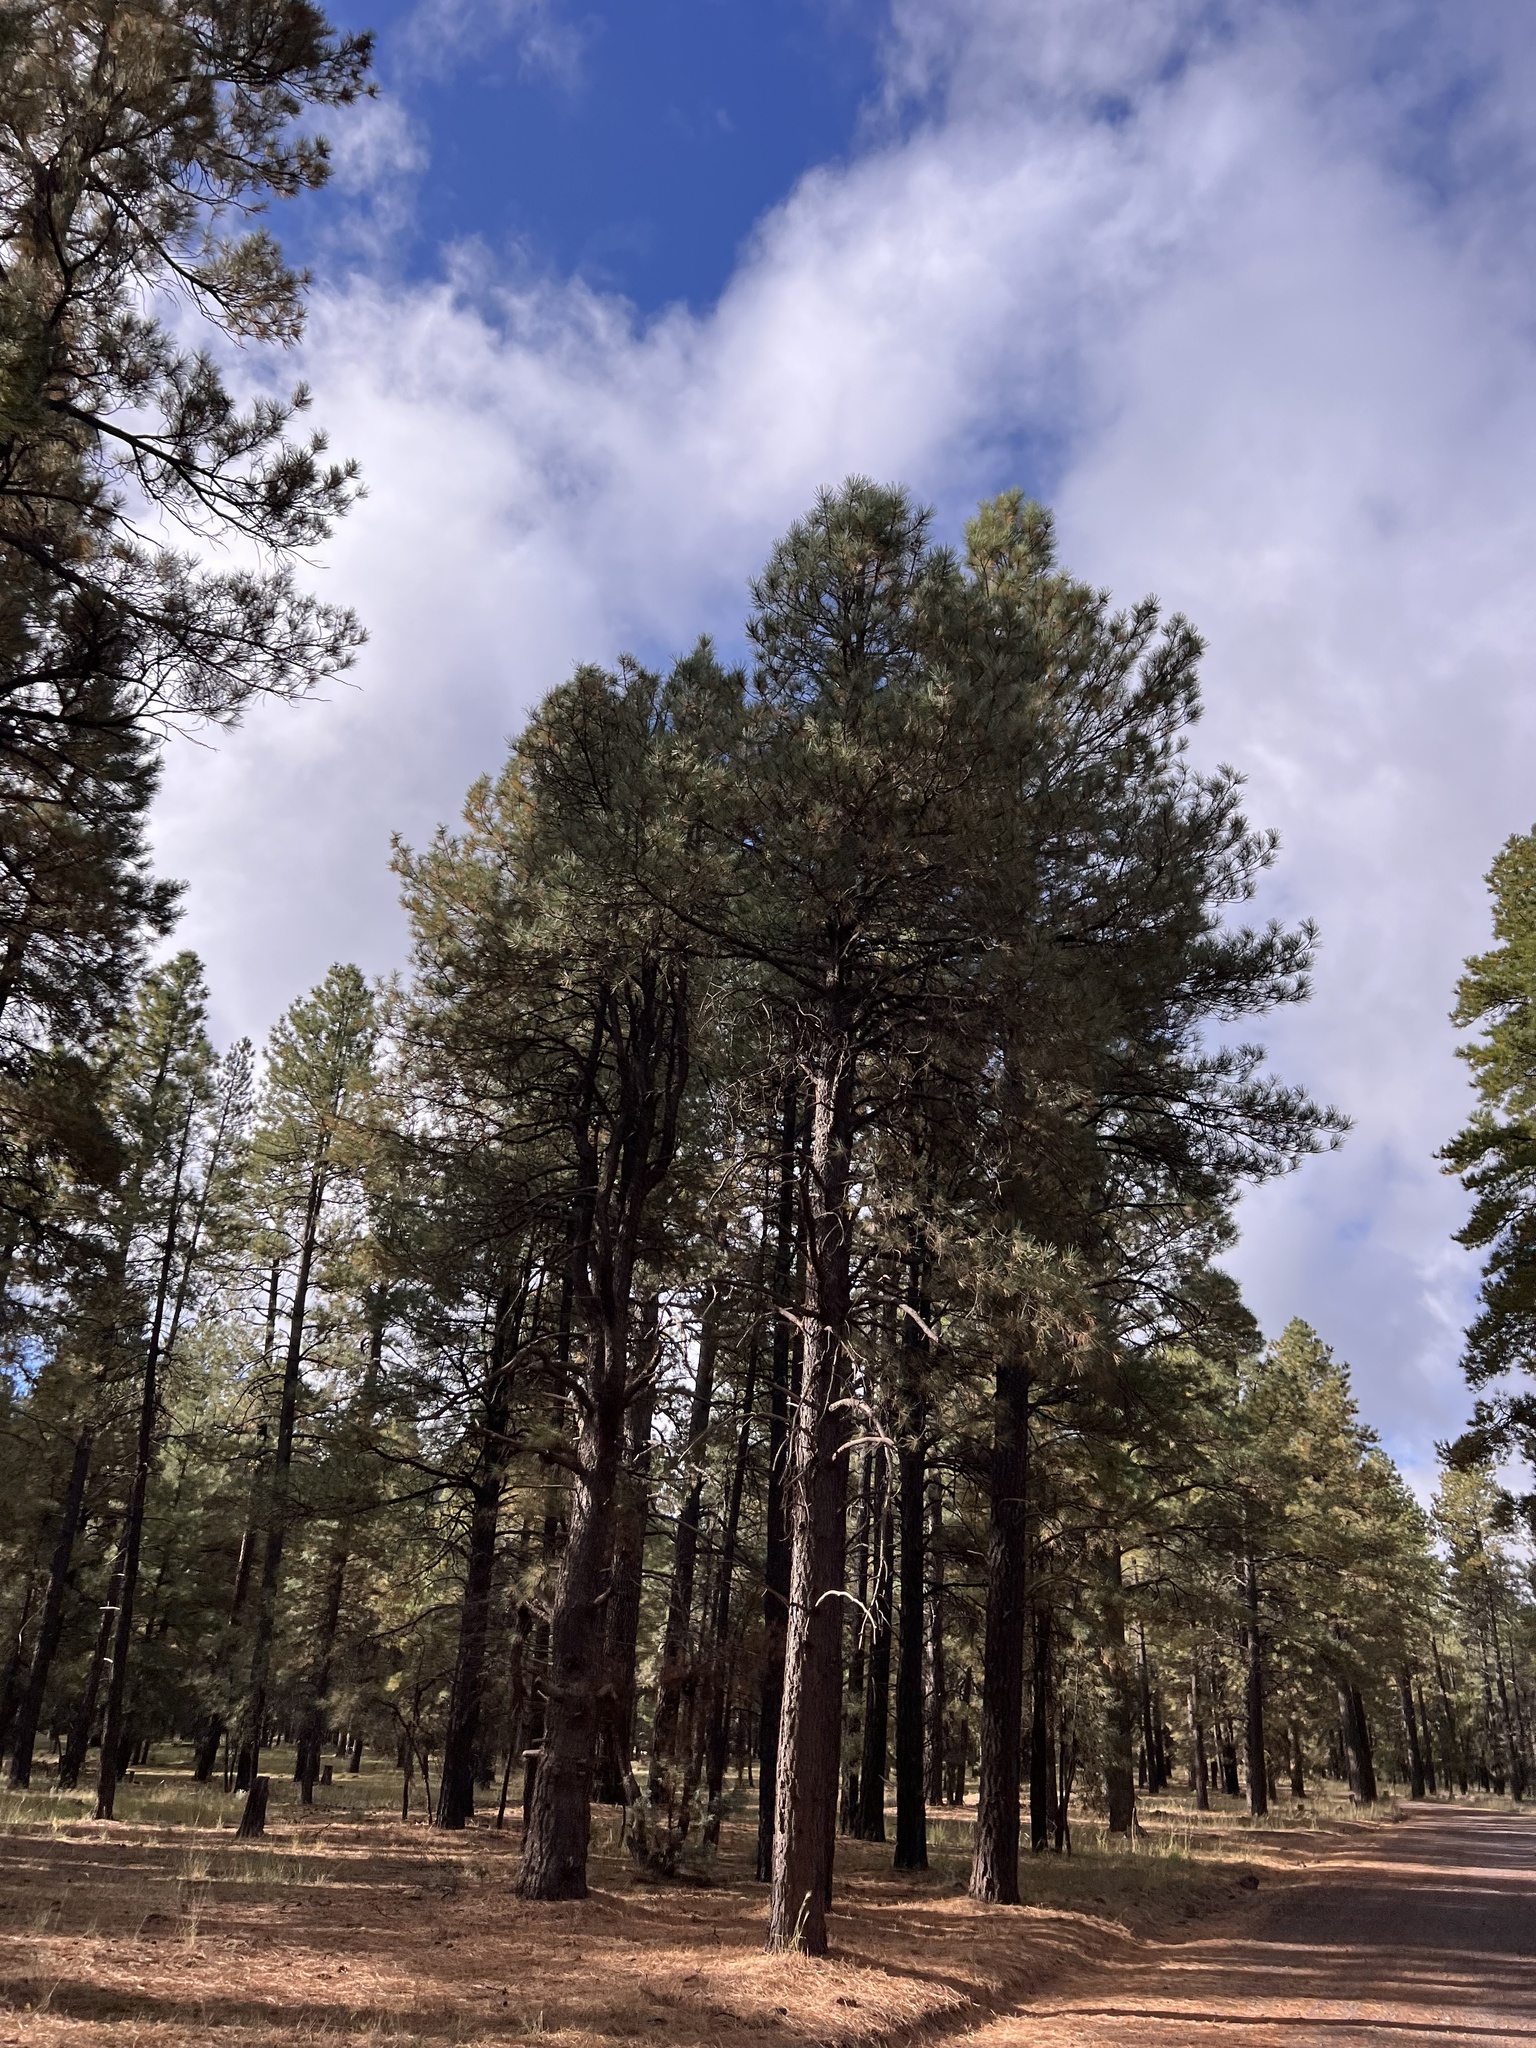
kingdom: Plantae
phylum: Tracheophyta
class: Pinopsida
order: Pinales
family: Pinaceae
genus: Pinus
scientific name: Pinus ponderosa
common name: Western yellow-pine
